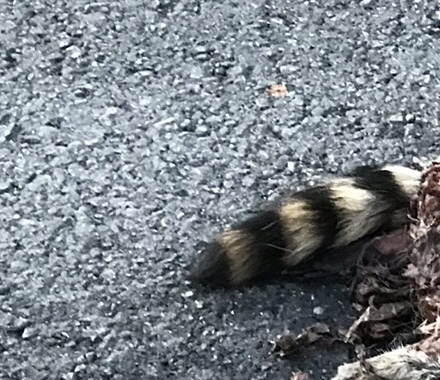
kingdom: Animalia
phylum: Chordata
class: Mammalia
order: Carnivora
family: Procyonidae
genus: Procyon
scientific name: Procyon lotor
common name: Raccoon
